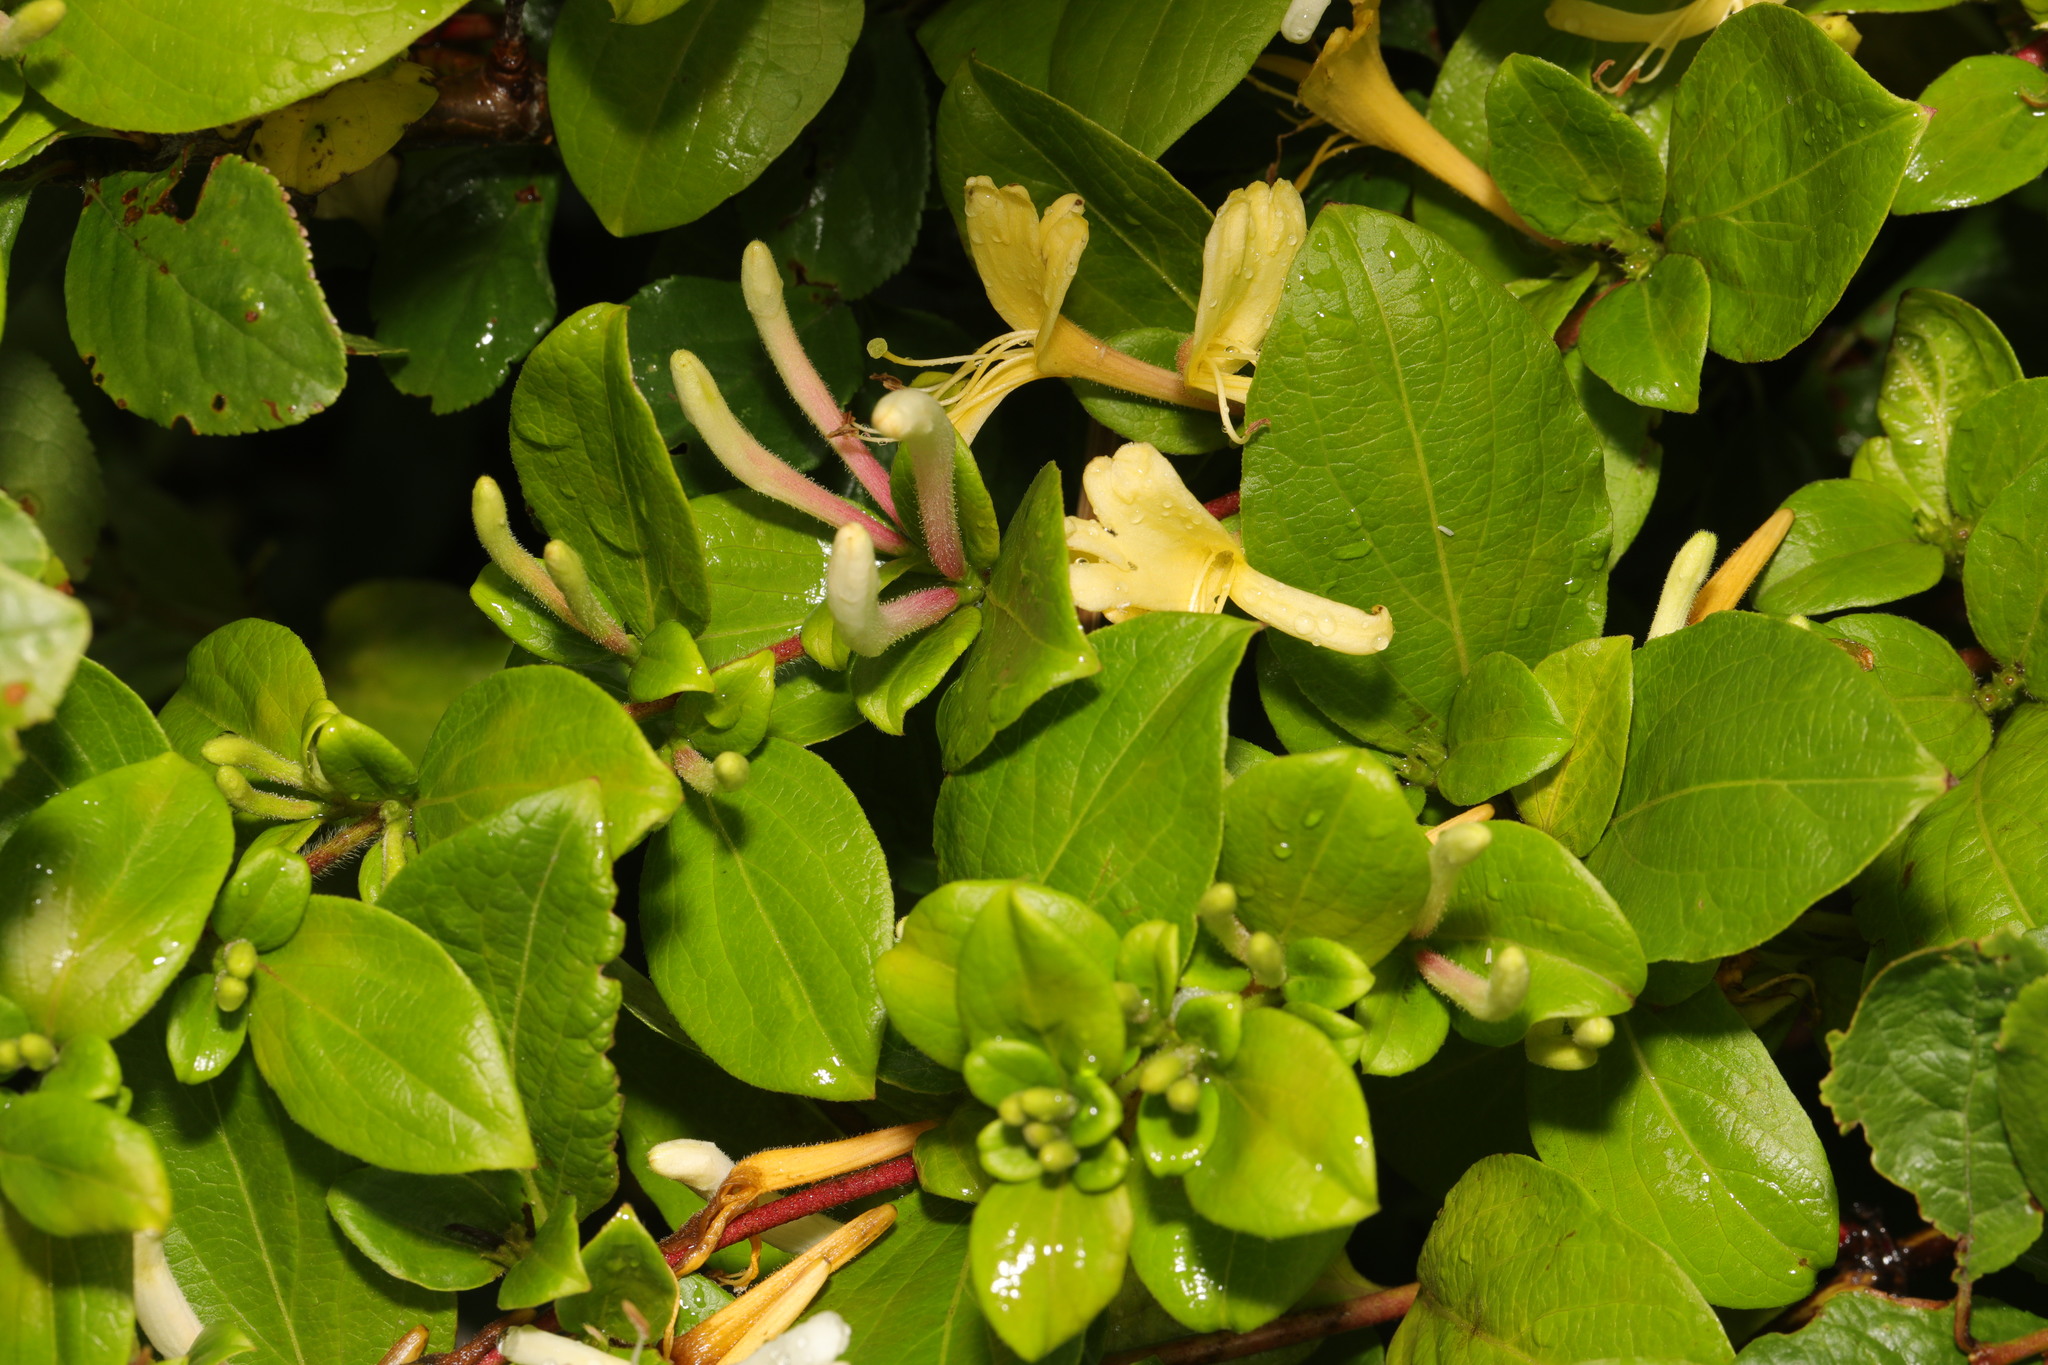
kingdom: Plantae
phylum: Tracheophyta
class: Magnoliopsida
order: Dipsacales
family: Caprifoliaceae
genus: Lonicera
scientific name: Lonicera japonica
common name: Japanese honeysuckle
